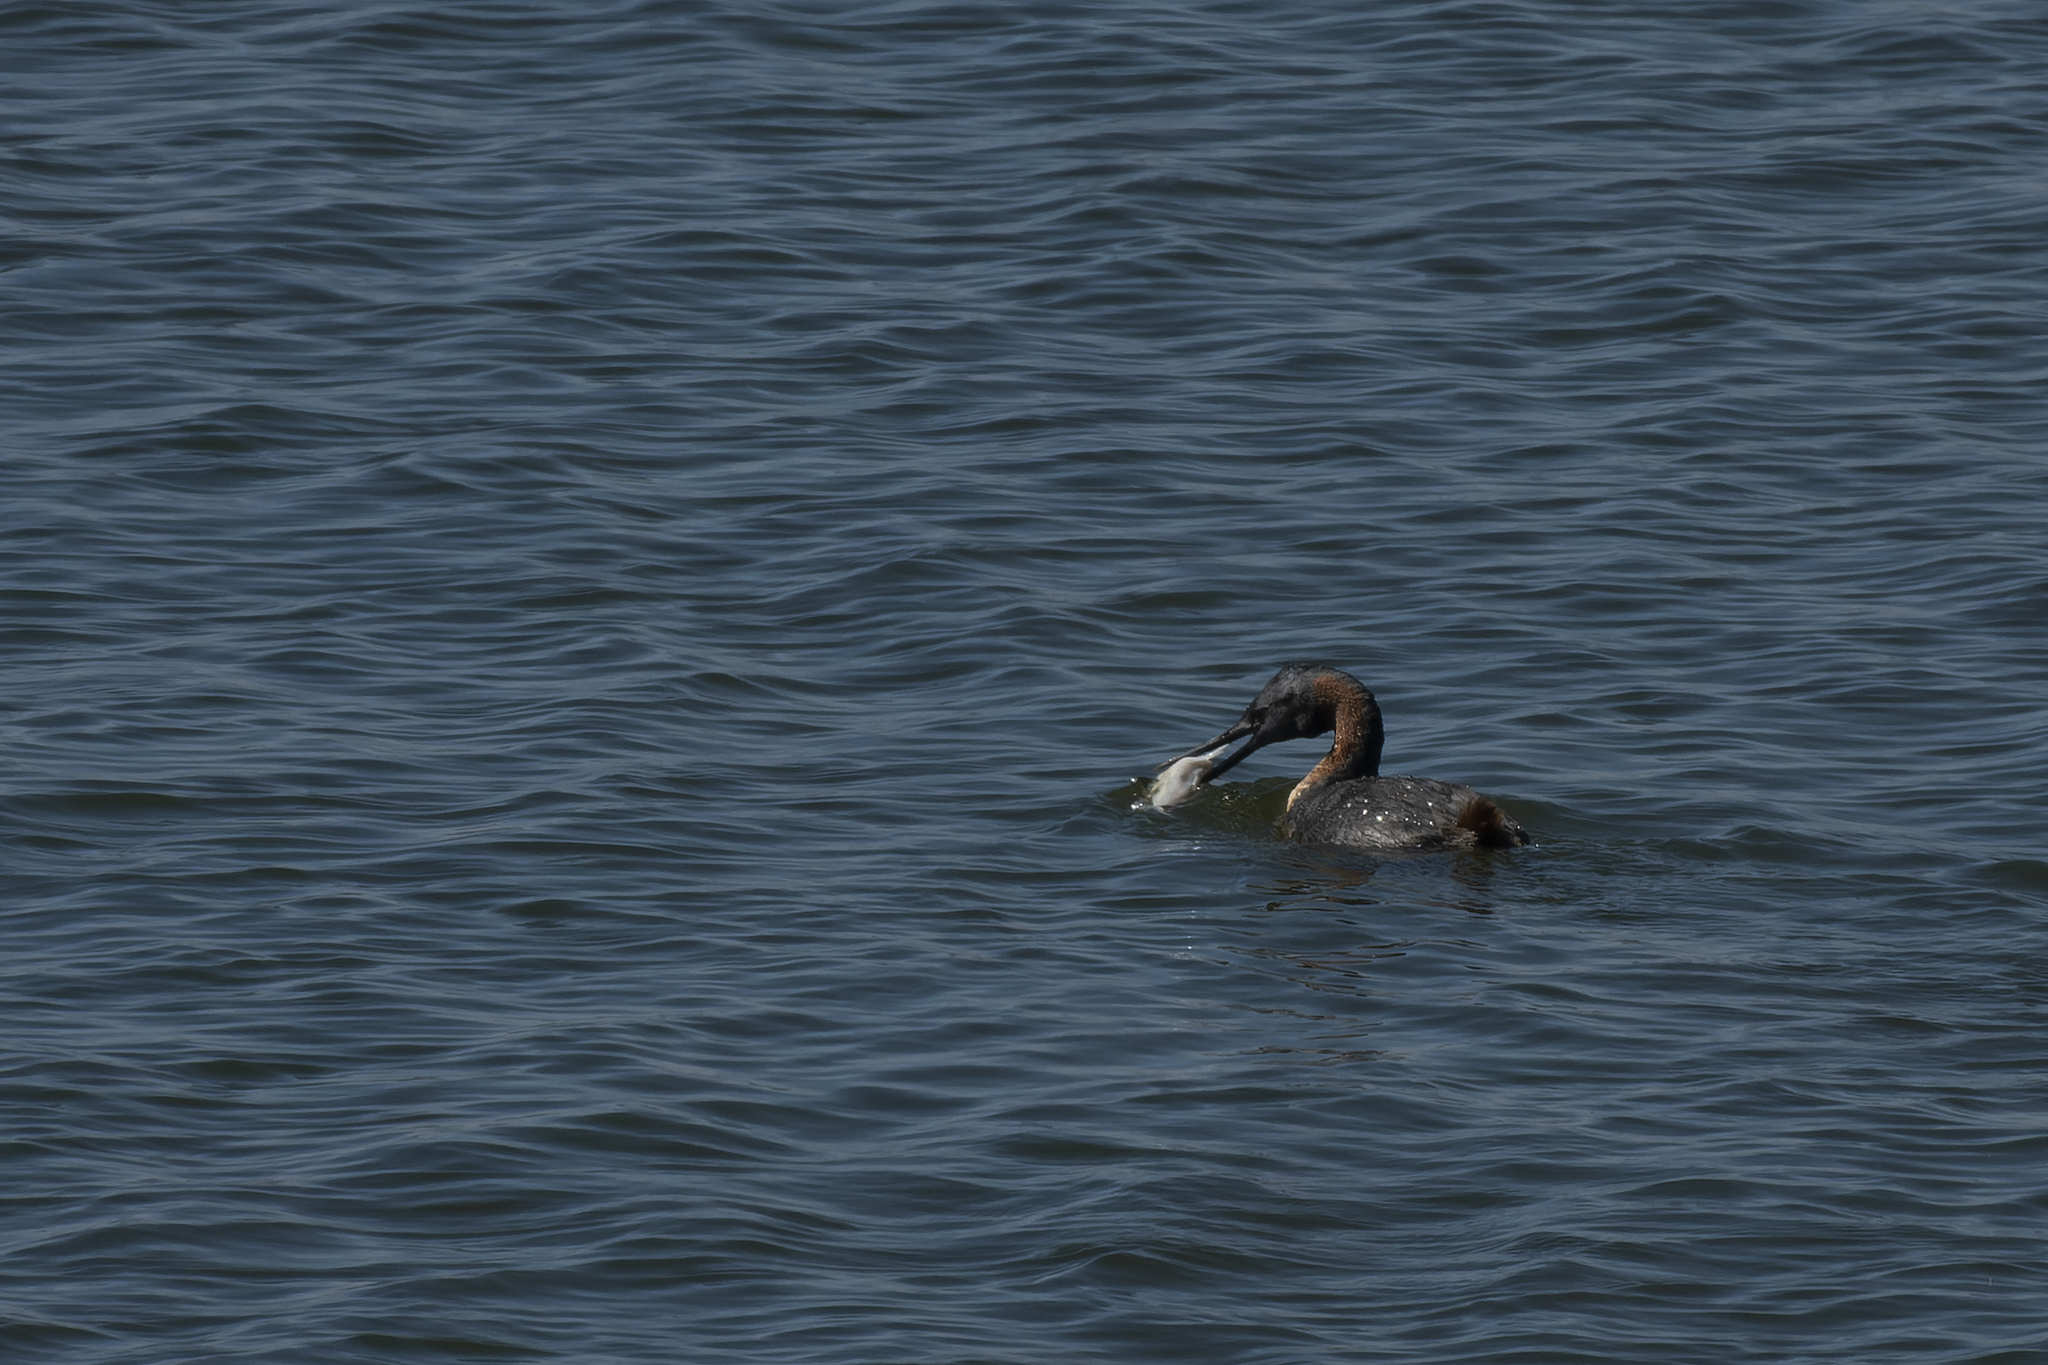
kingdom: Animalia
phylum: Chordata
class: Aves
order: Podicipediformes
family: Podicipedidae
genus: Podiceps
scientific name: Podiceps major
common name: Great grebe
